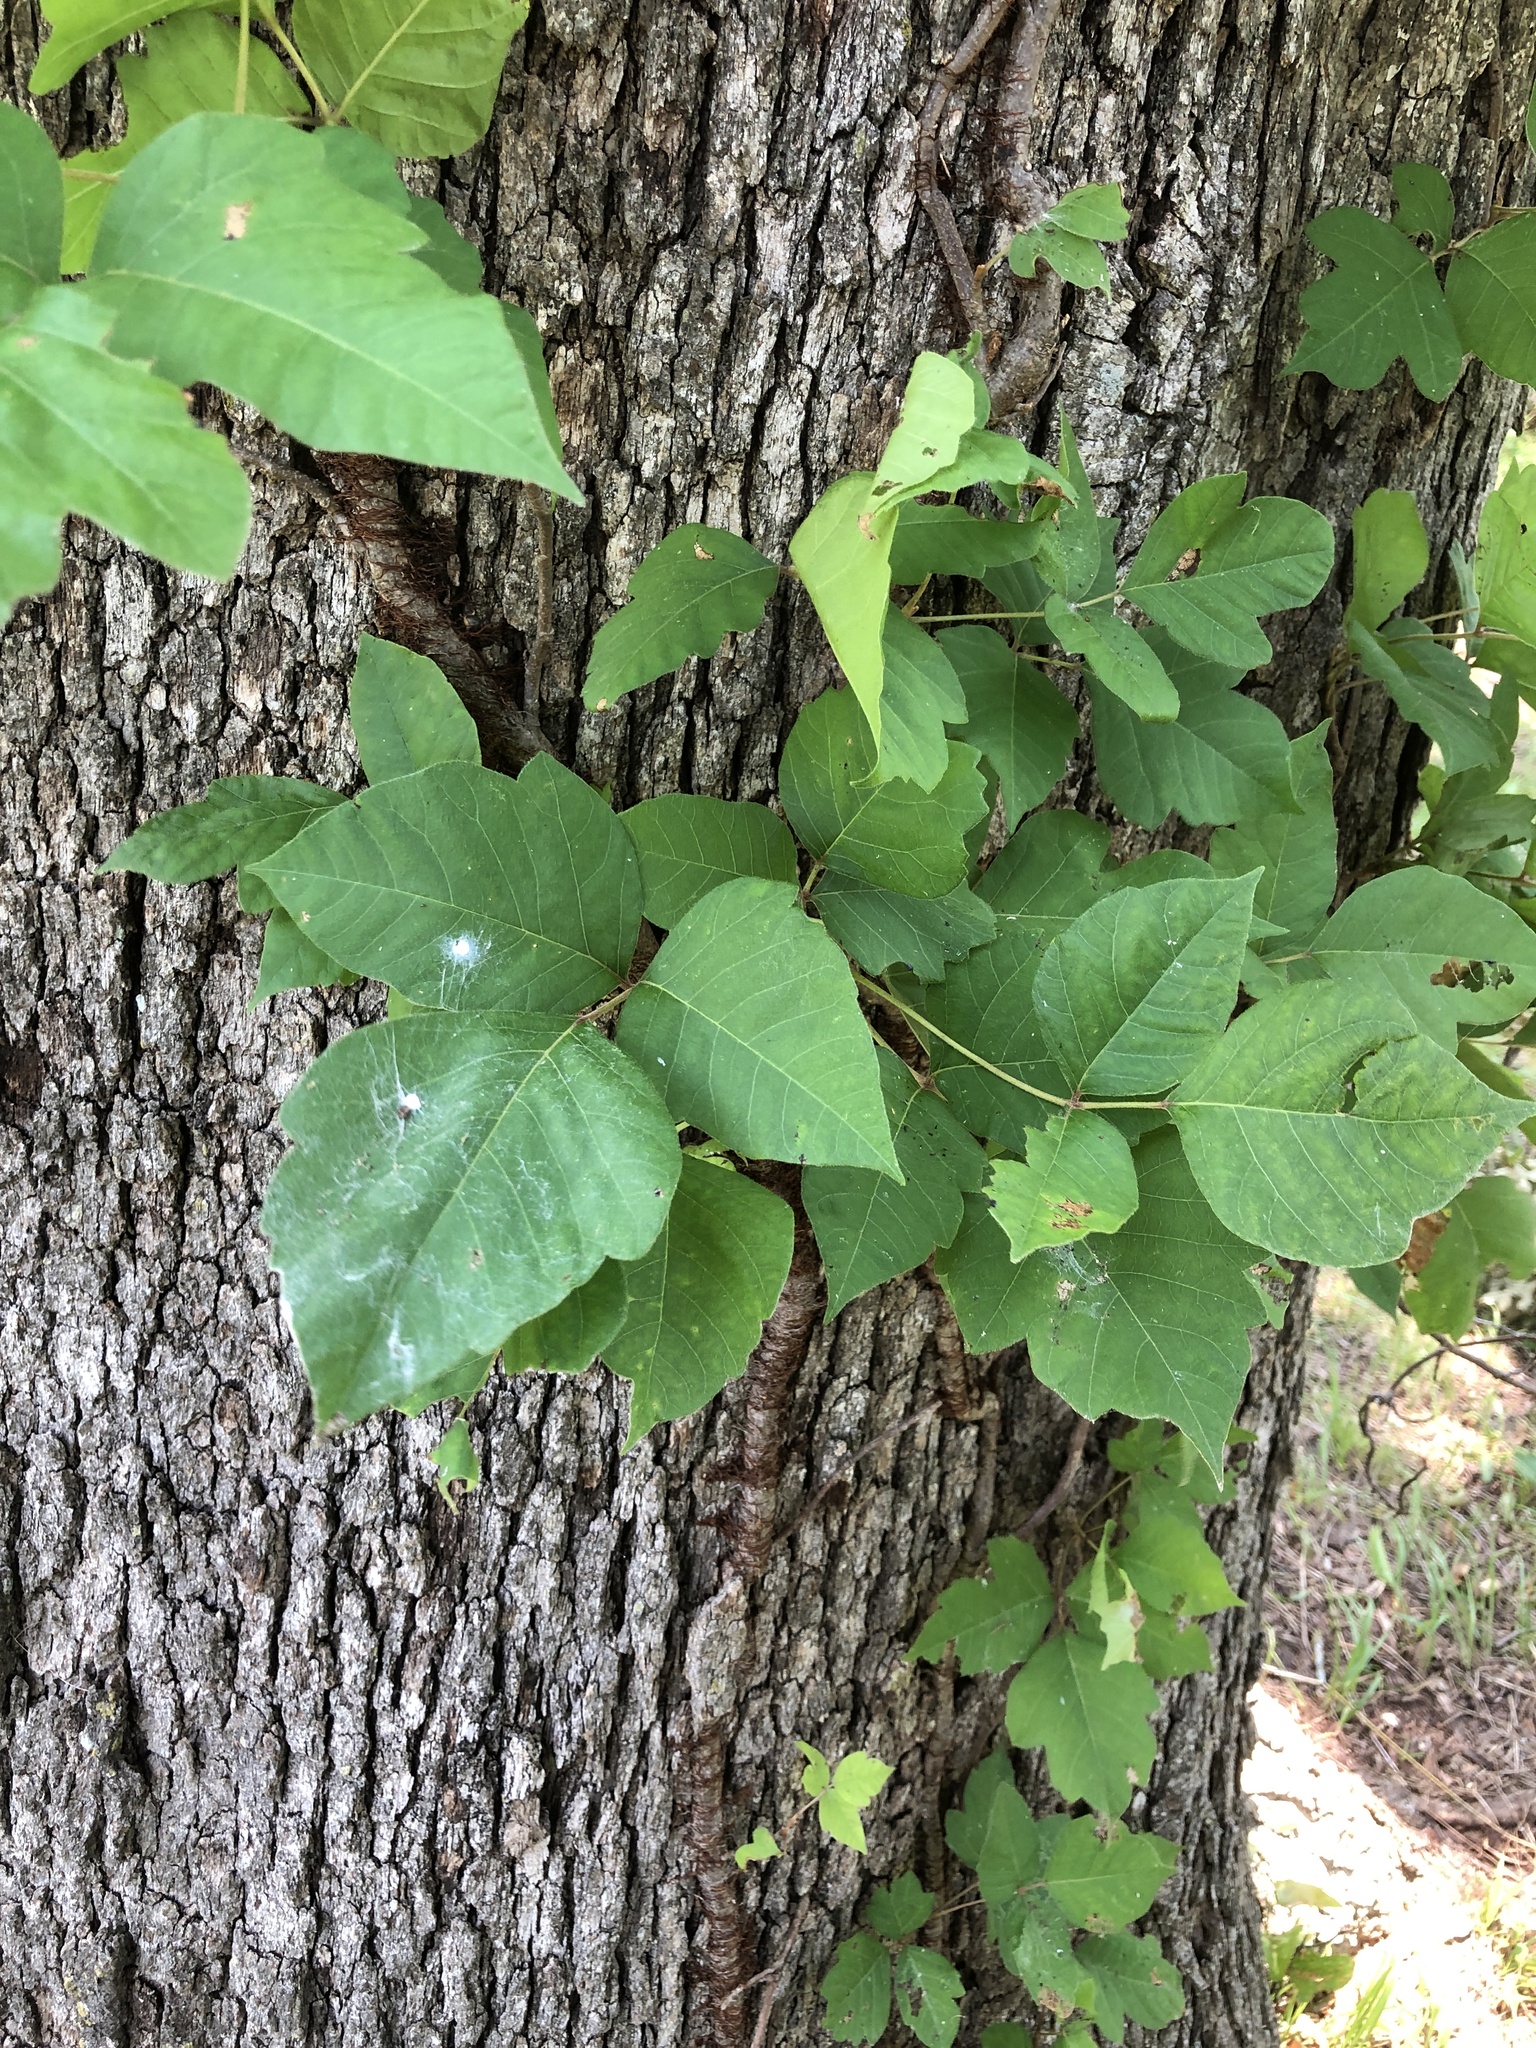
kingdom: Plantae
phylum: Tracheophyta
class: Magnoliopsida
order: Sapindales
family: Anacardiaceae
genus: Toxicodendron
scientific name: Toxicodendron radicans
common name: Poison ivy
